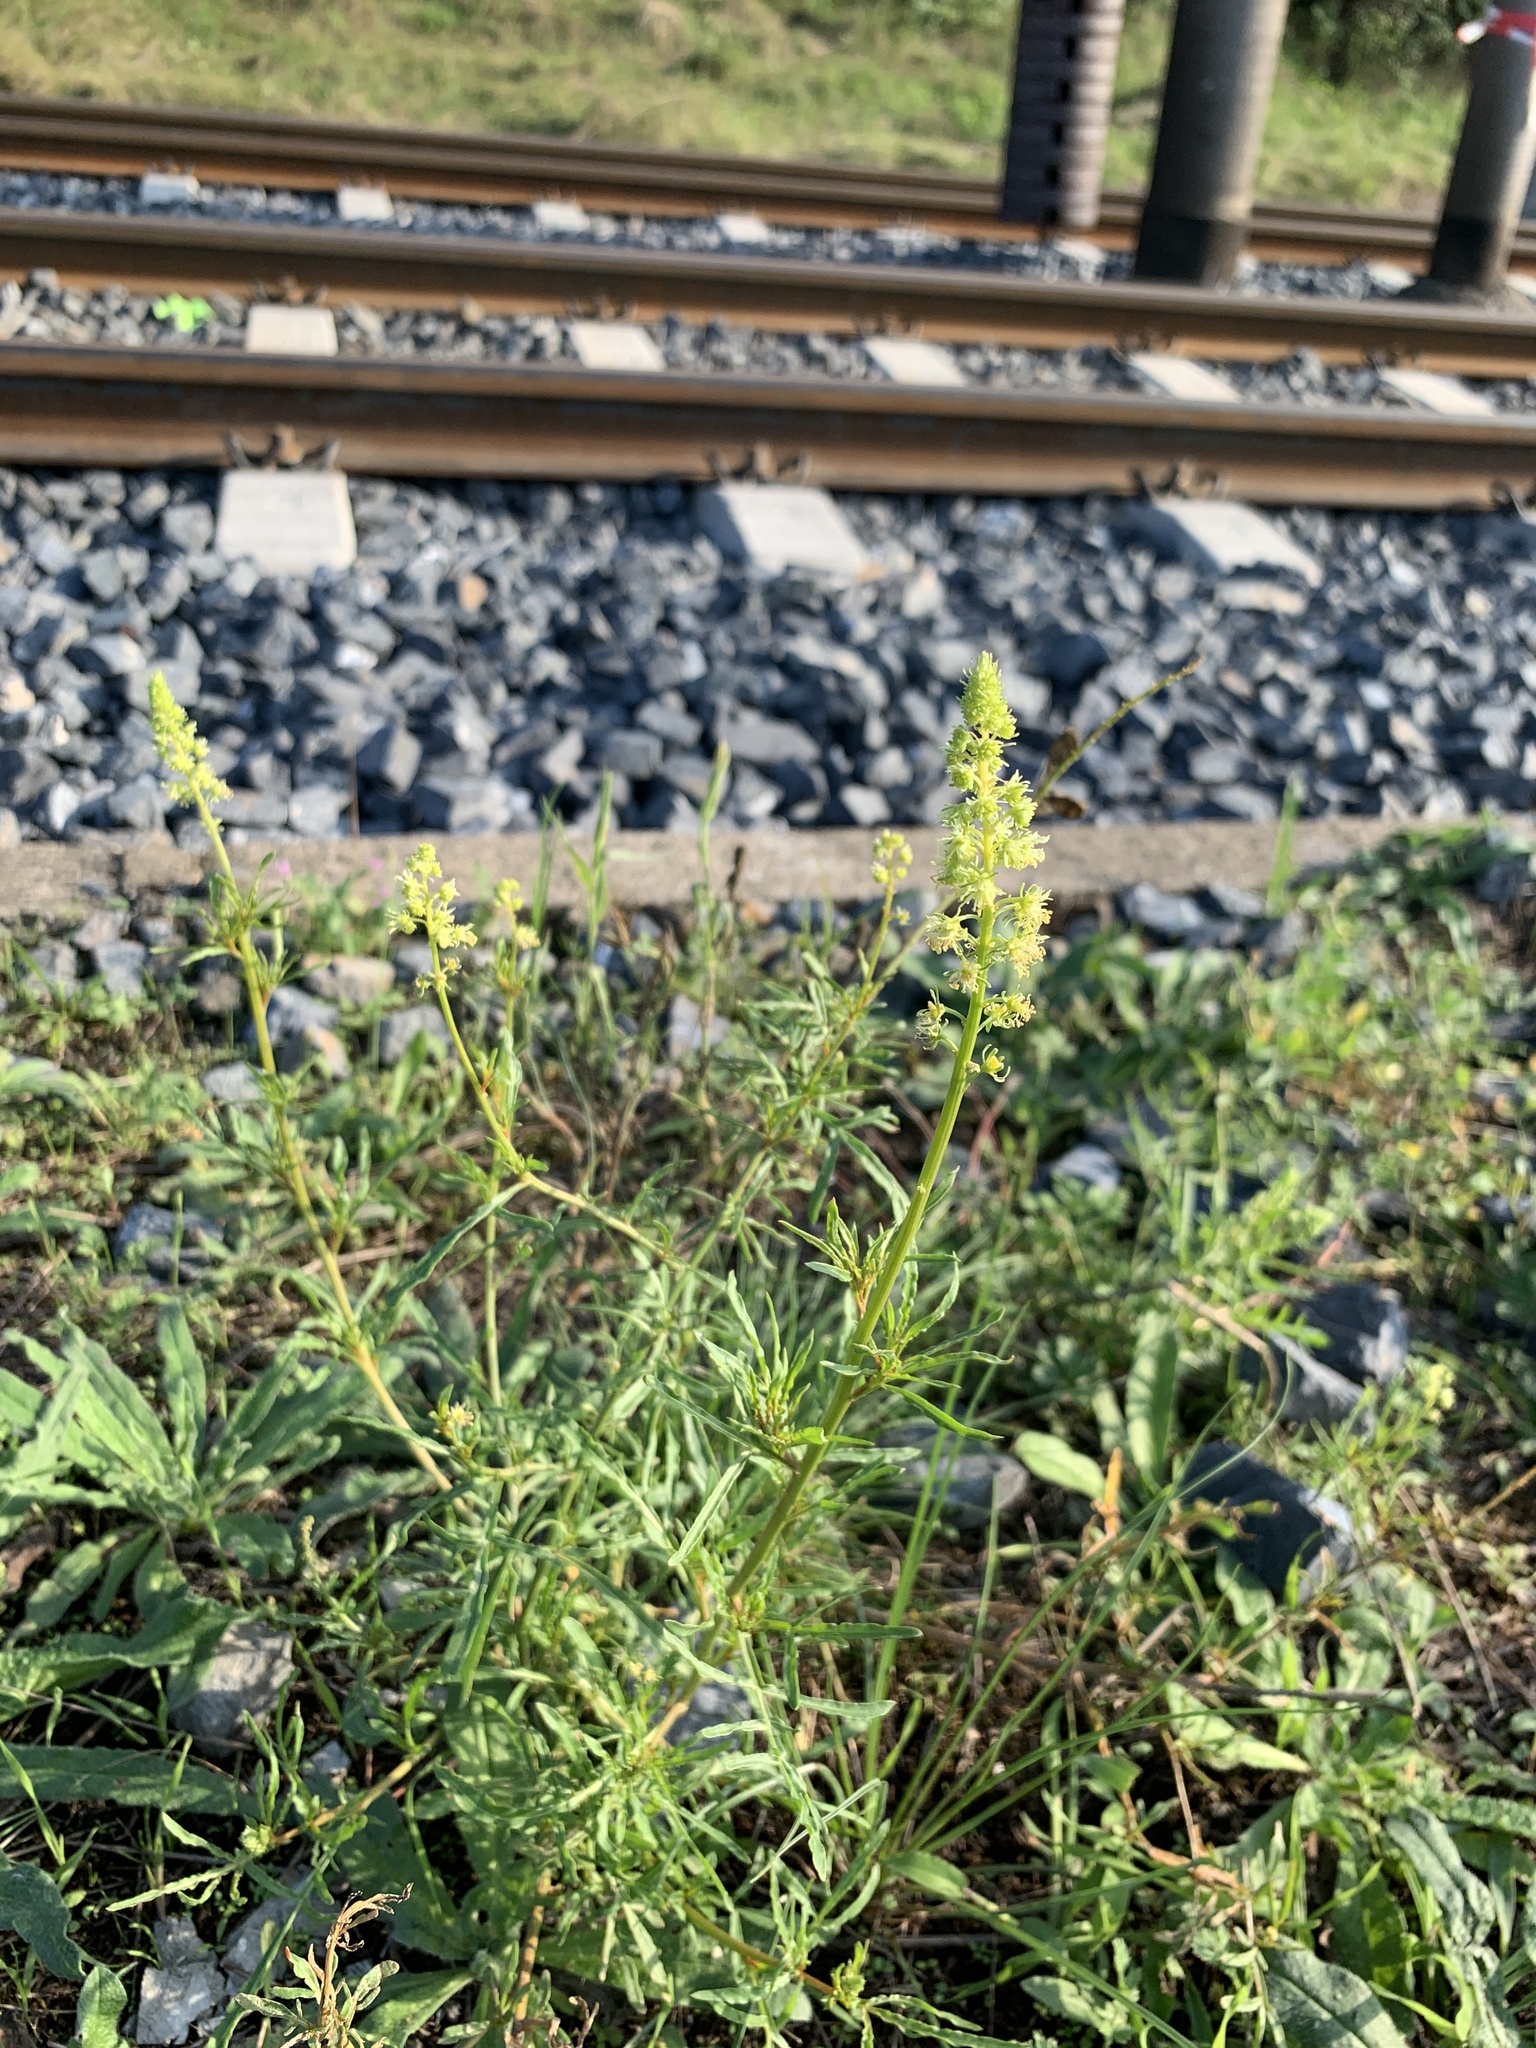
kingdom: Plantae
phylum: Tracheophyta
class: Magnoliopsida
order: Brassicales
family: Resedaceae
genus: Reseda
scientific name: Reseda lutea
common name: Wild mignonette
